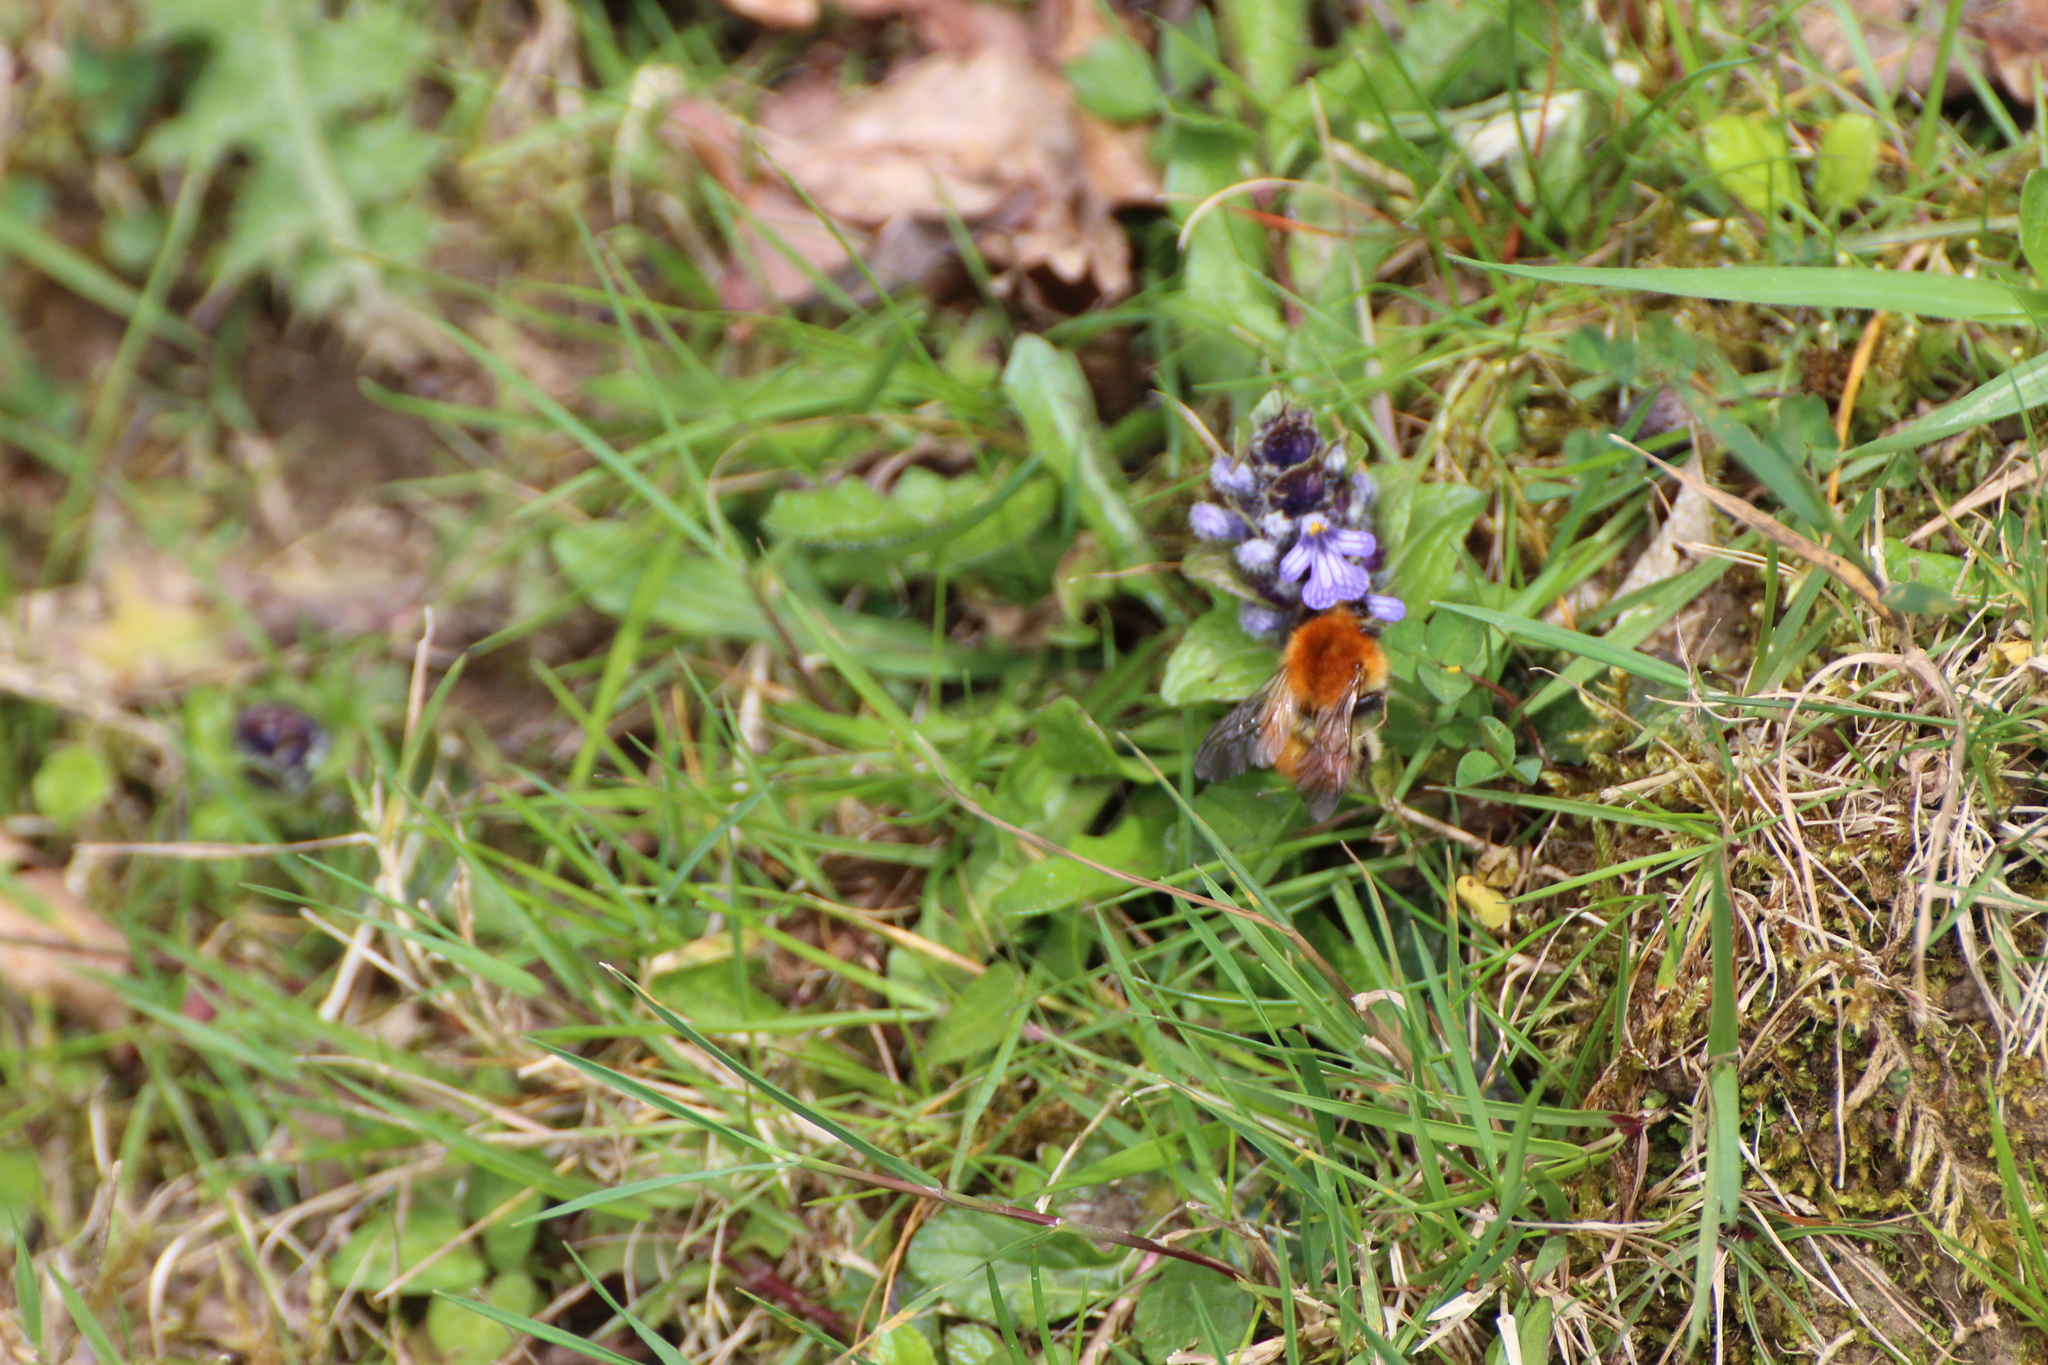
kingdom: Animalia
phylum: Arthropoda
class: Insecta
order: Hymenoptera
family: Apidae
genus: Bombus
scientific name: Bombus pascuorum
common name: Common carder bee
